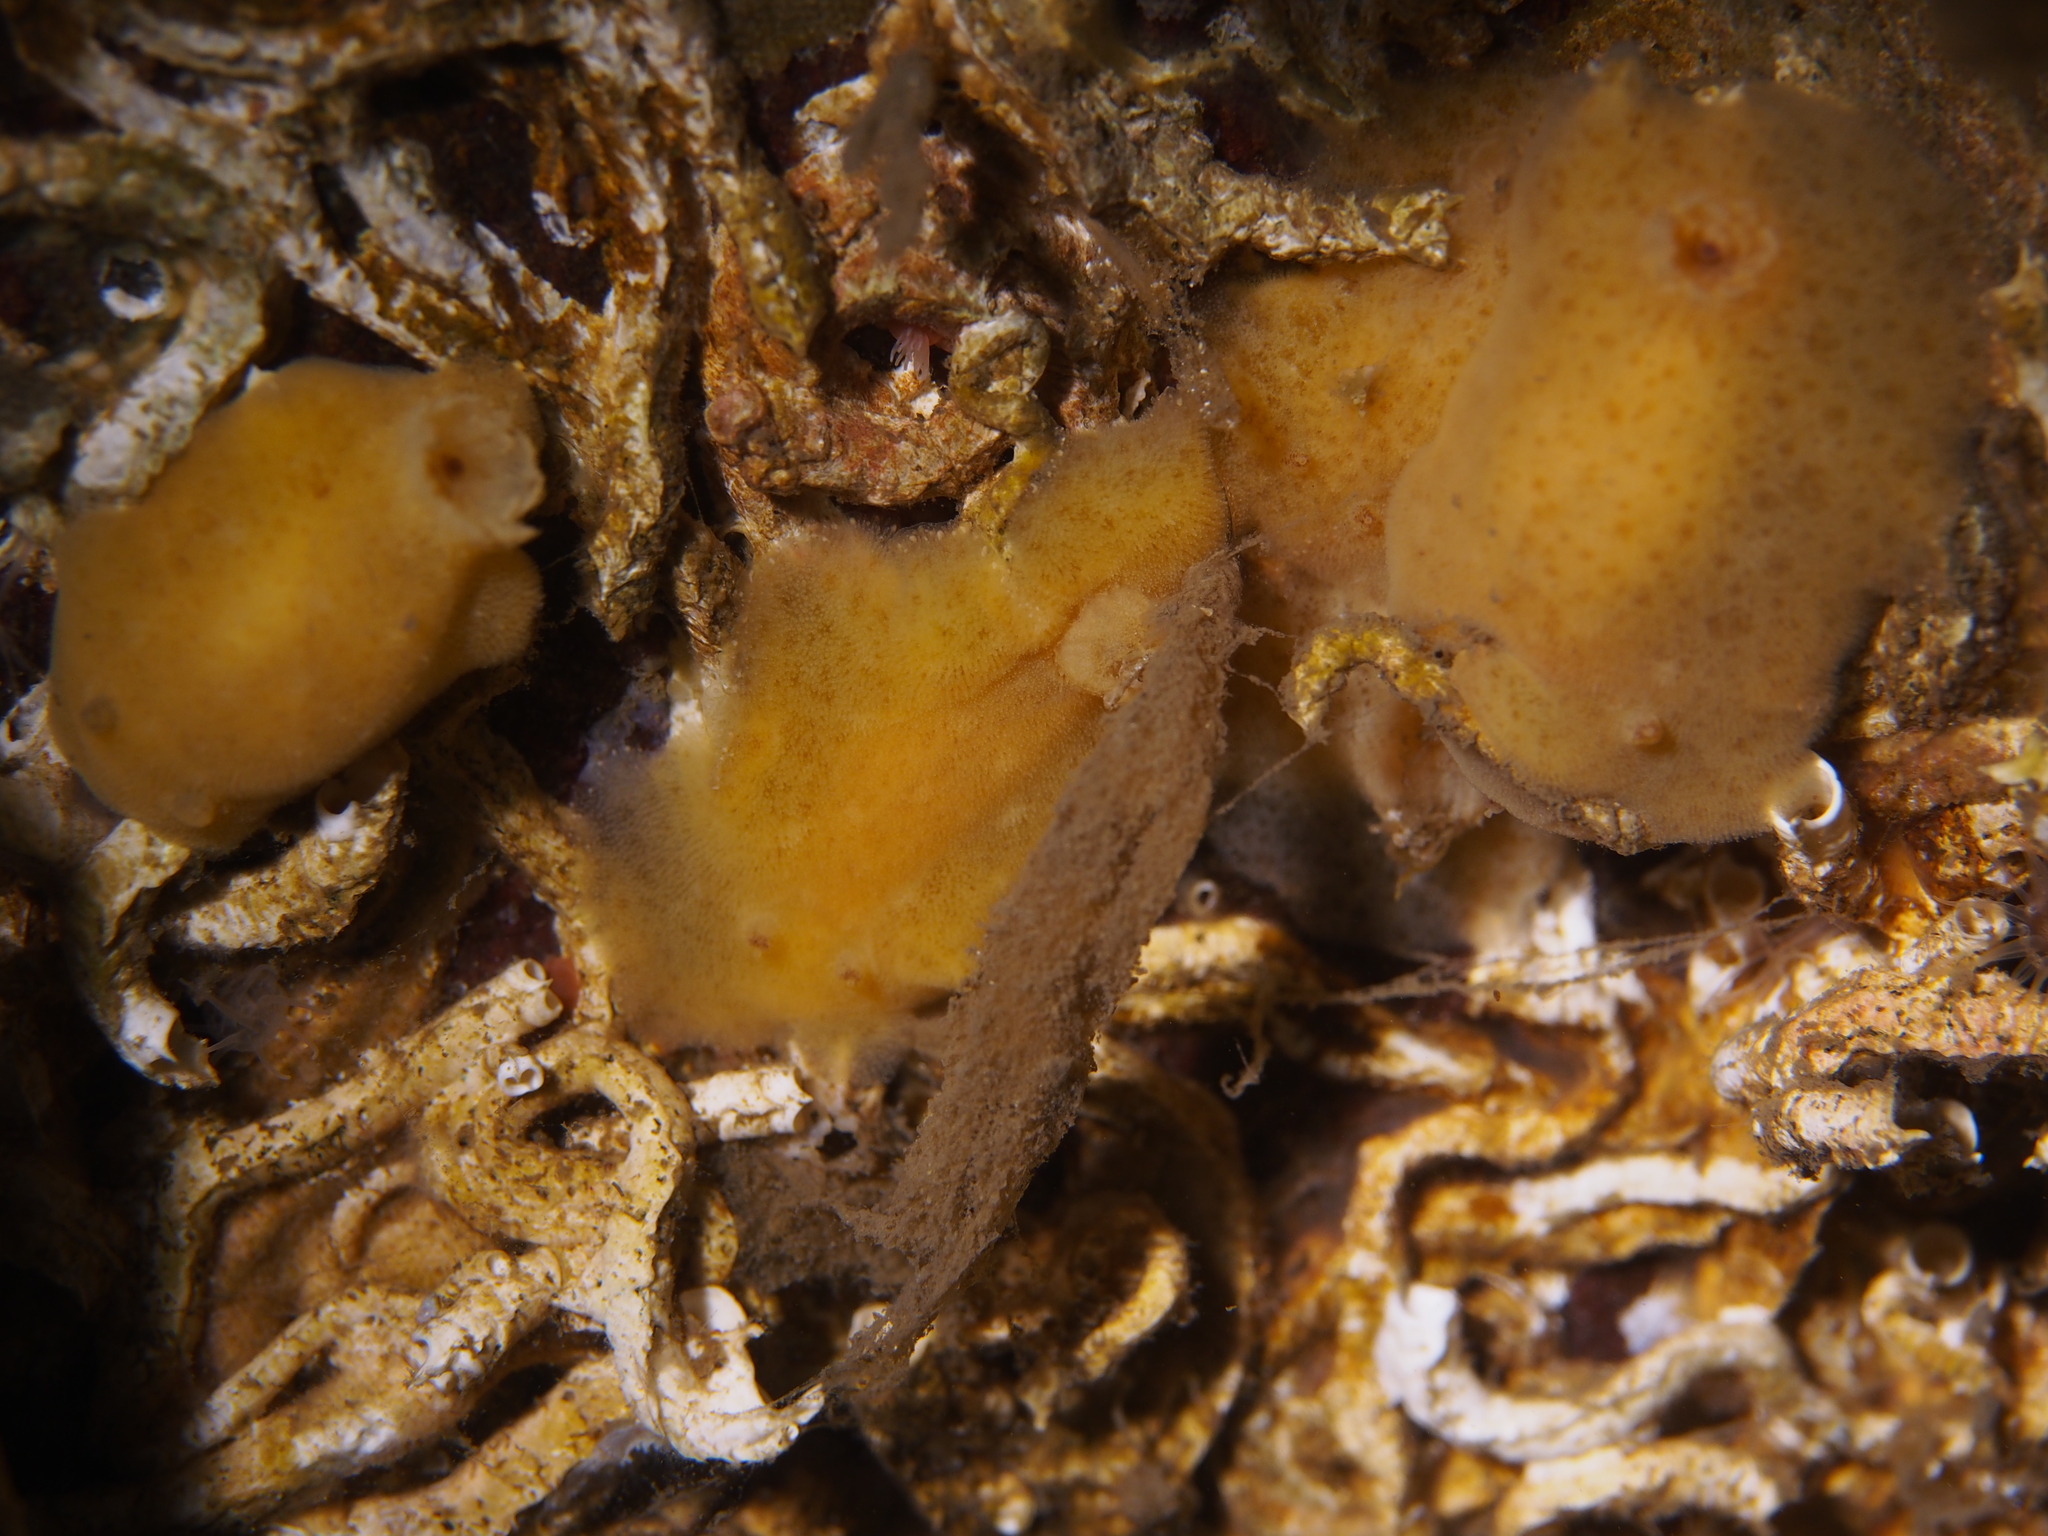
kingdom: Animalia
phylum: Mollusca
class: Gastropoda
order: Nudibranchia
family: Discodorididae
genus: Jorunna
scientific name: Jorunna tomentosa
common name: Grey sea slug
